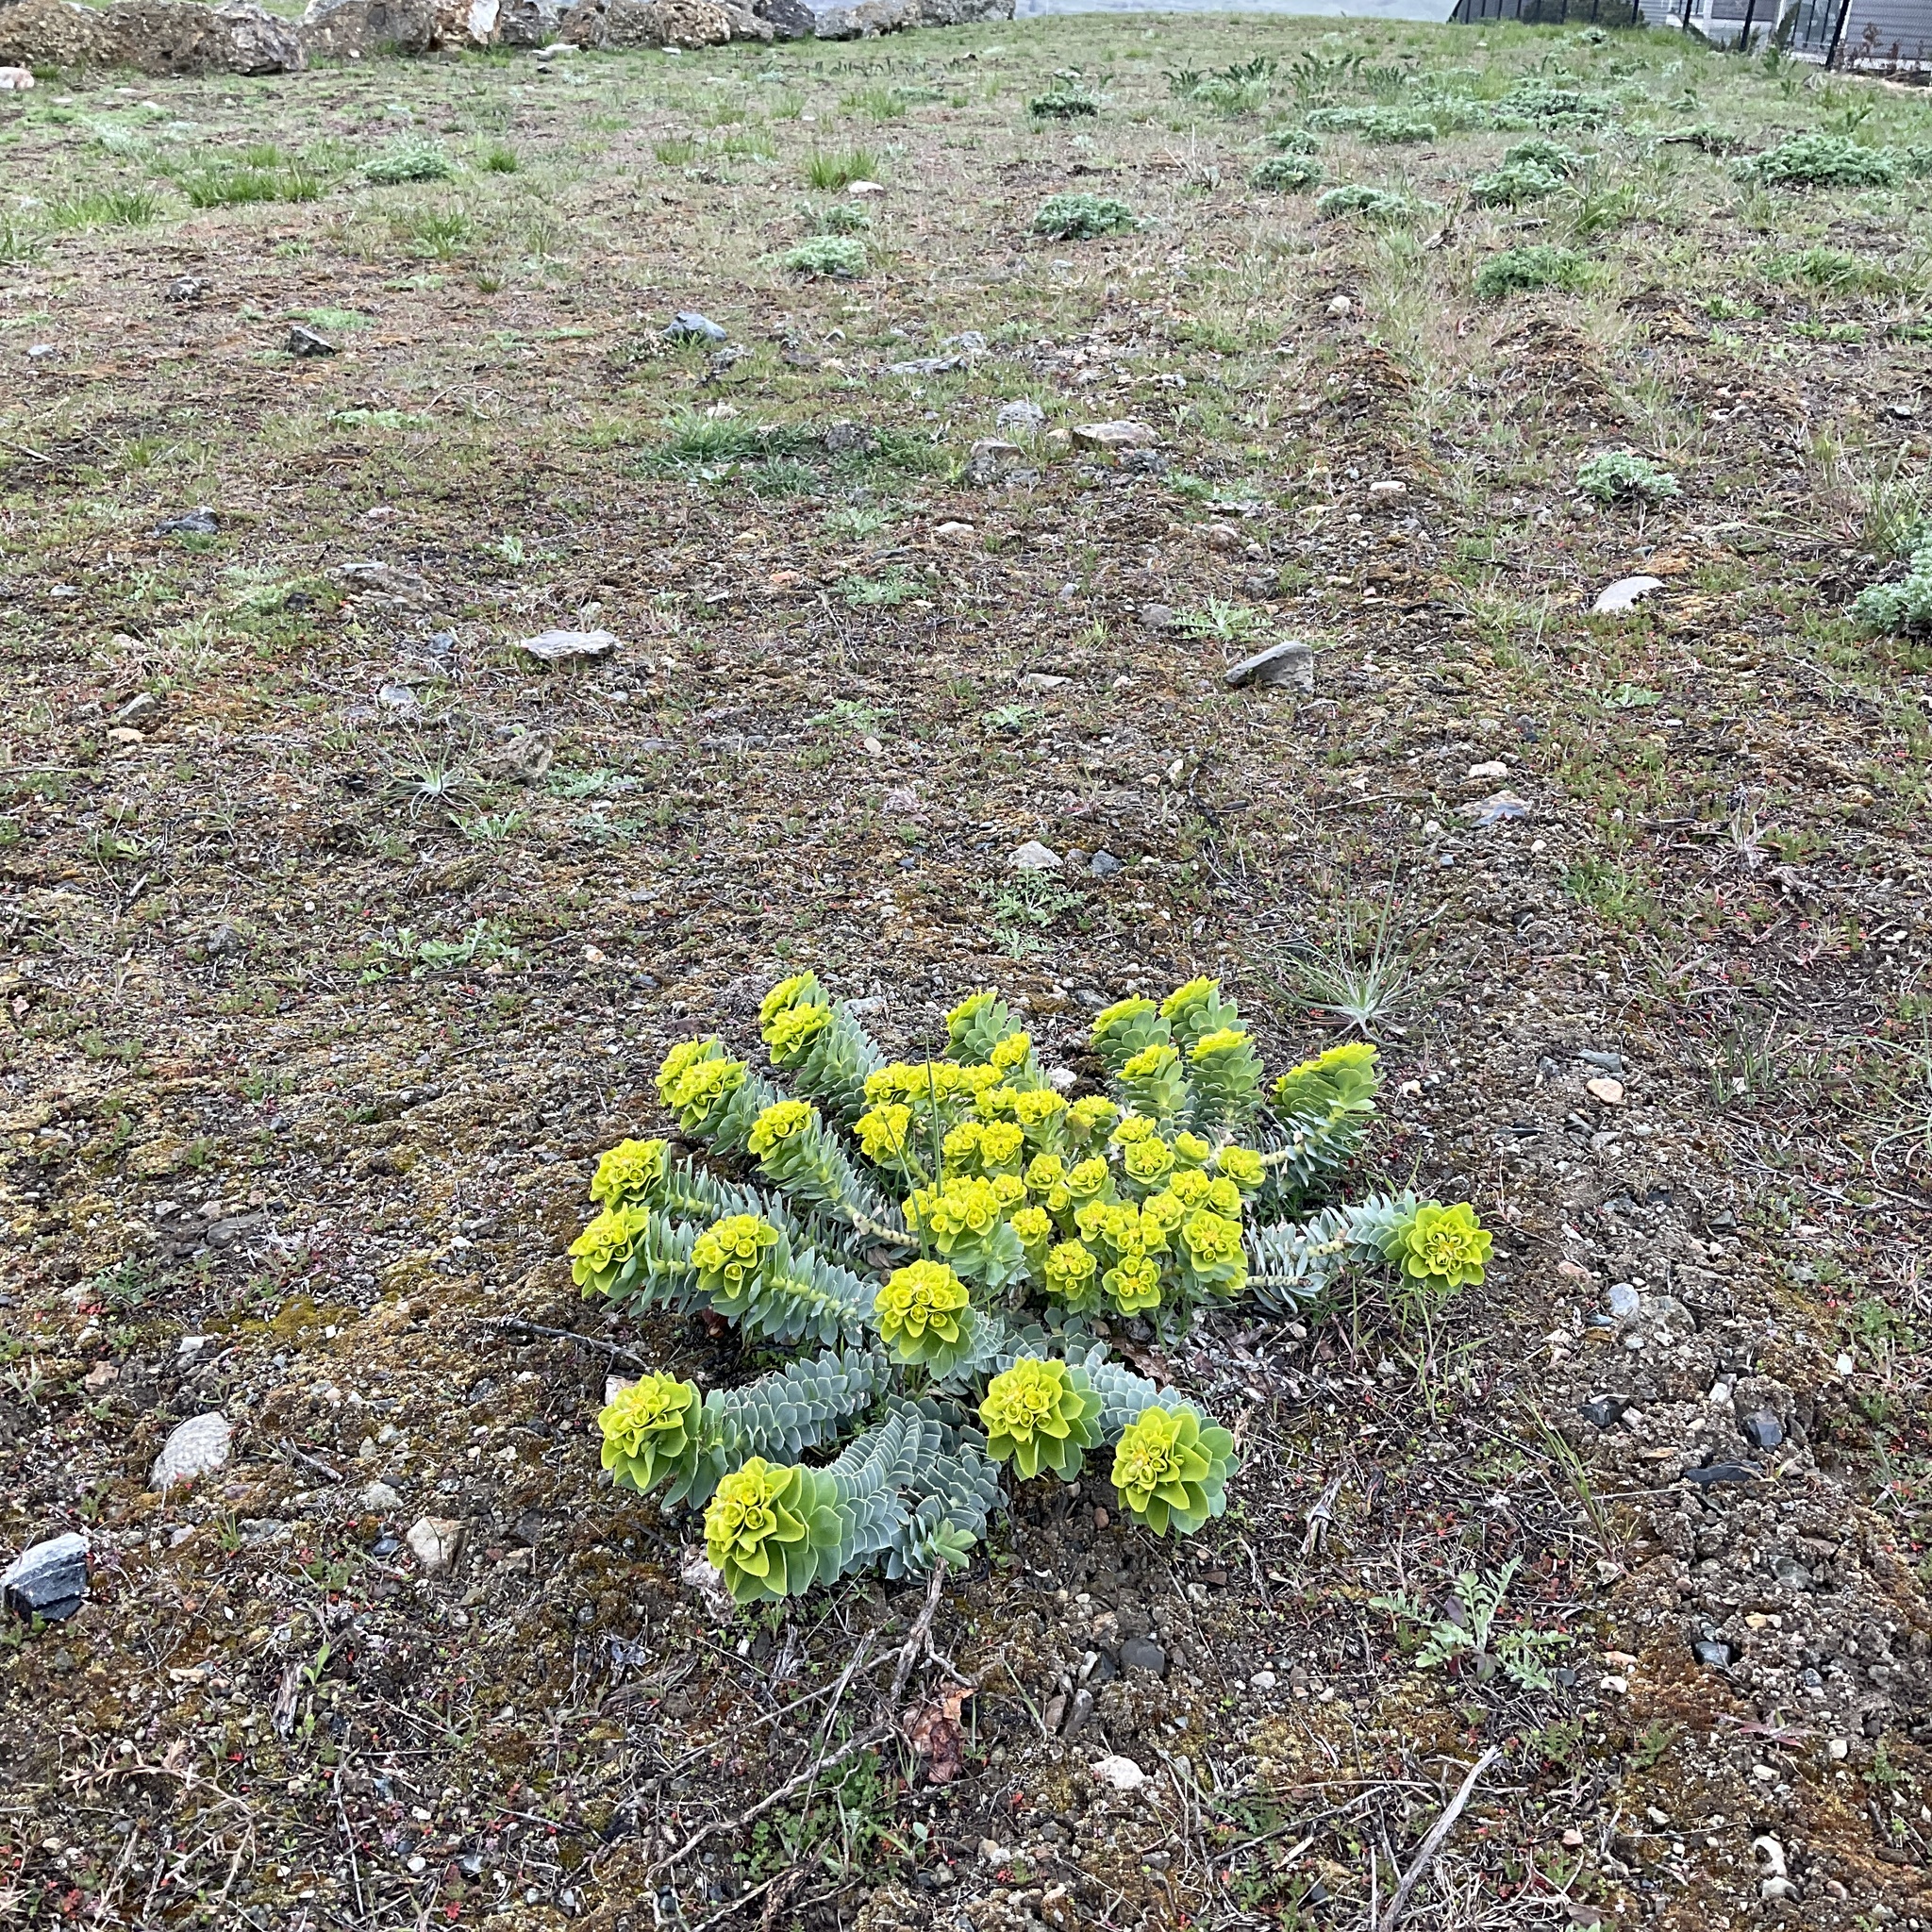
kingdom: Plantae
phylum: Tracheophyta
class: Magnoliopsida
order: Malpighiales
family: Euphorbiaceae
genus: Euphorbia
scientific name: Euphorbia myrsinites
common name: Myrtle spurge
